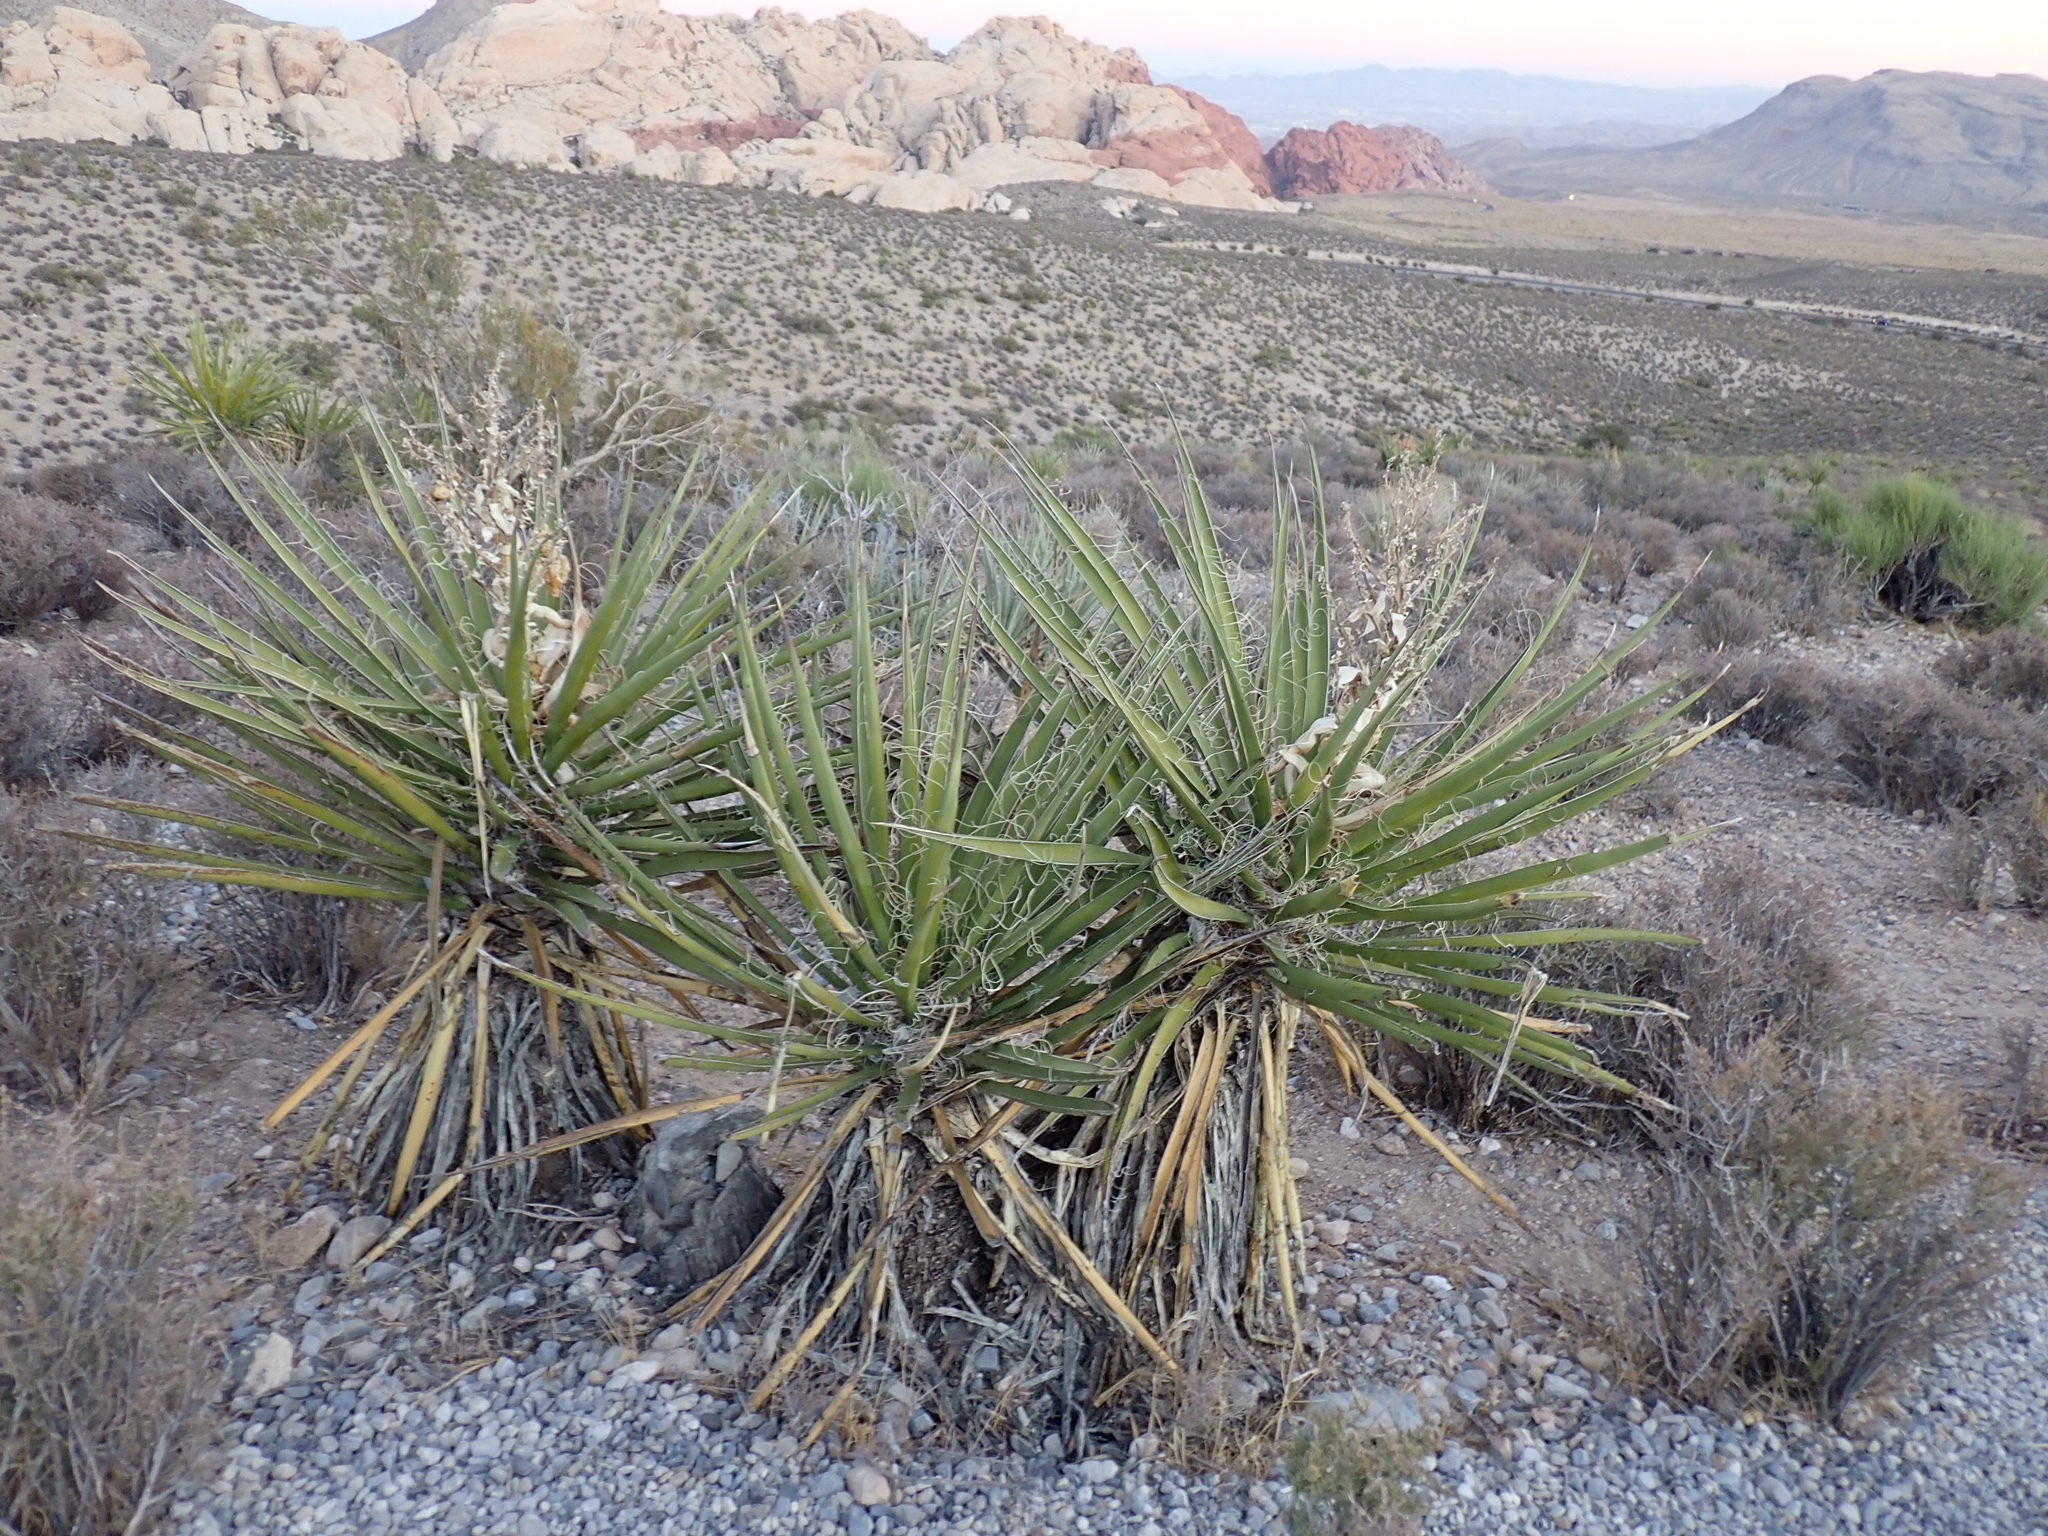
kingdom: Plantae
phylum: Tracheophyta
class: Liliopsida
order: Asparagales
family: Asparagaceae
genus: Yucca
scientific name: Yucca schidigera
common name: Mojave yucca
